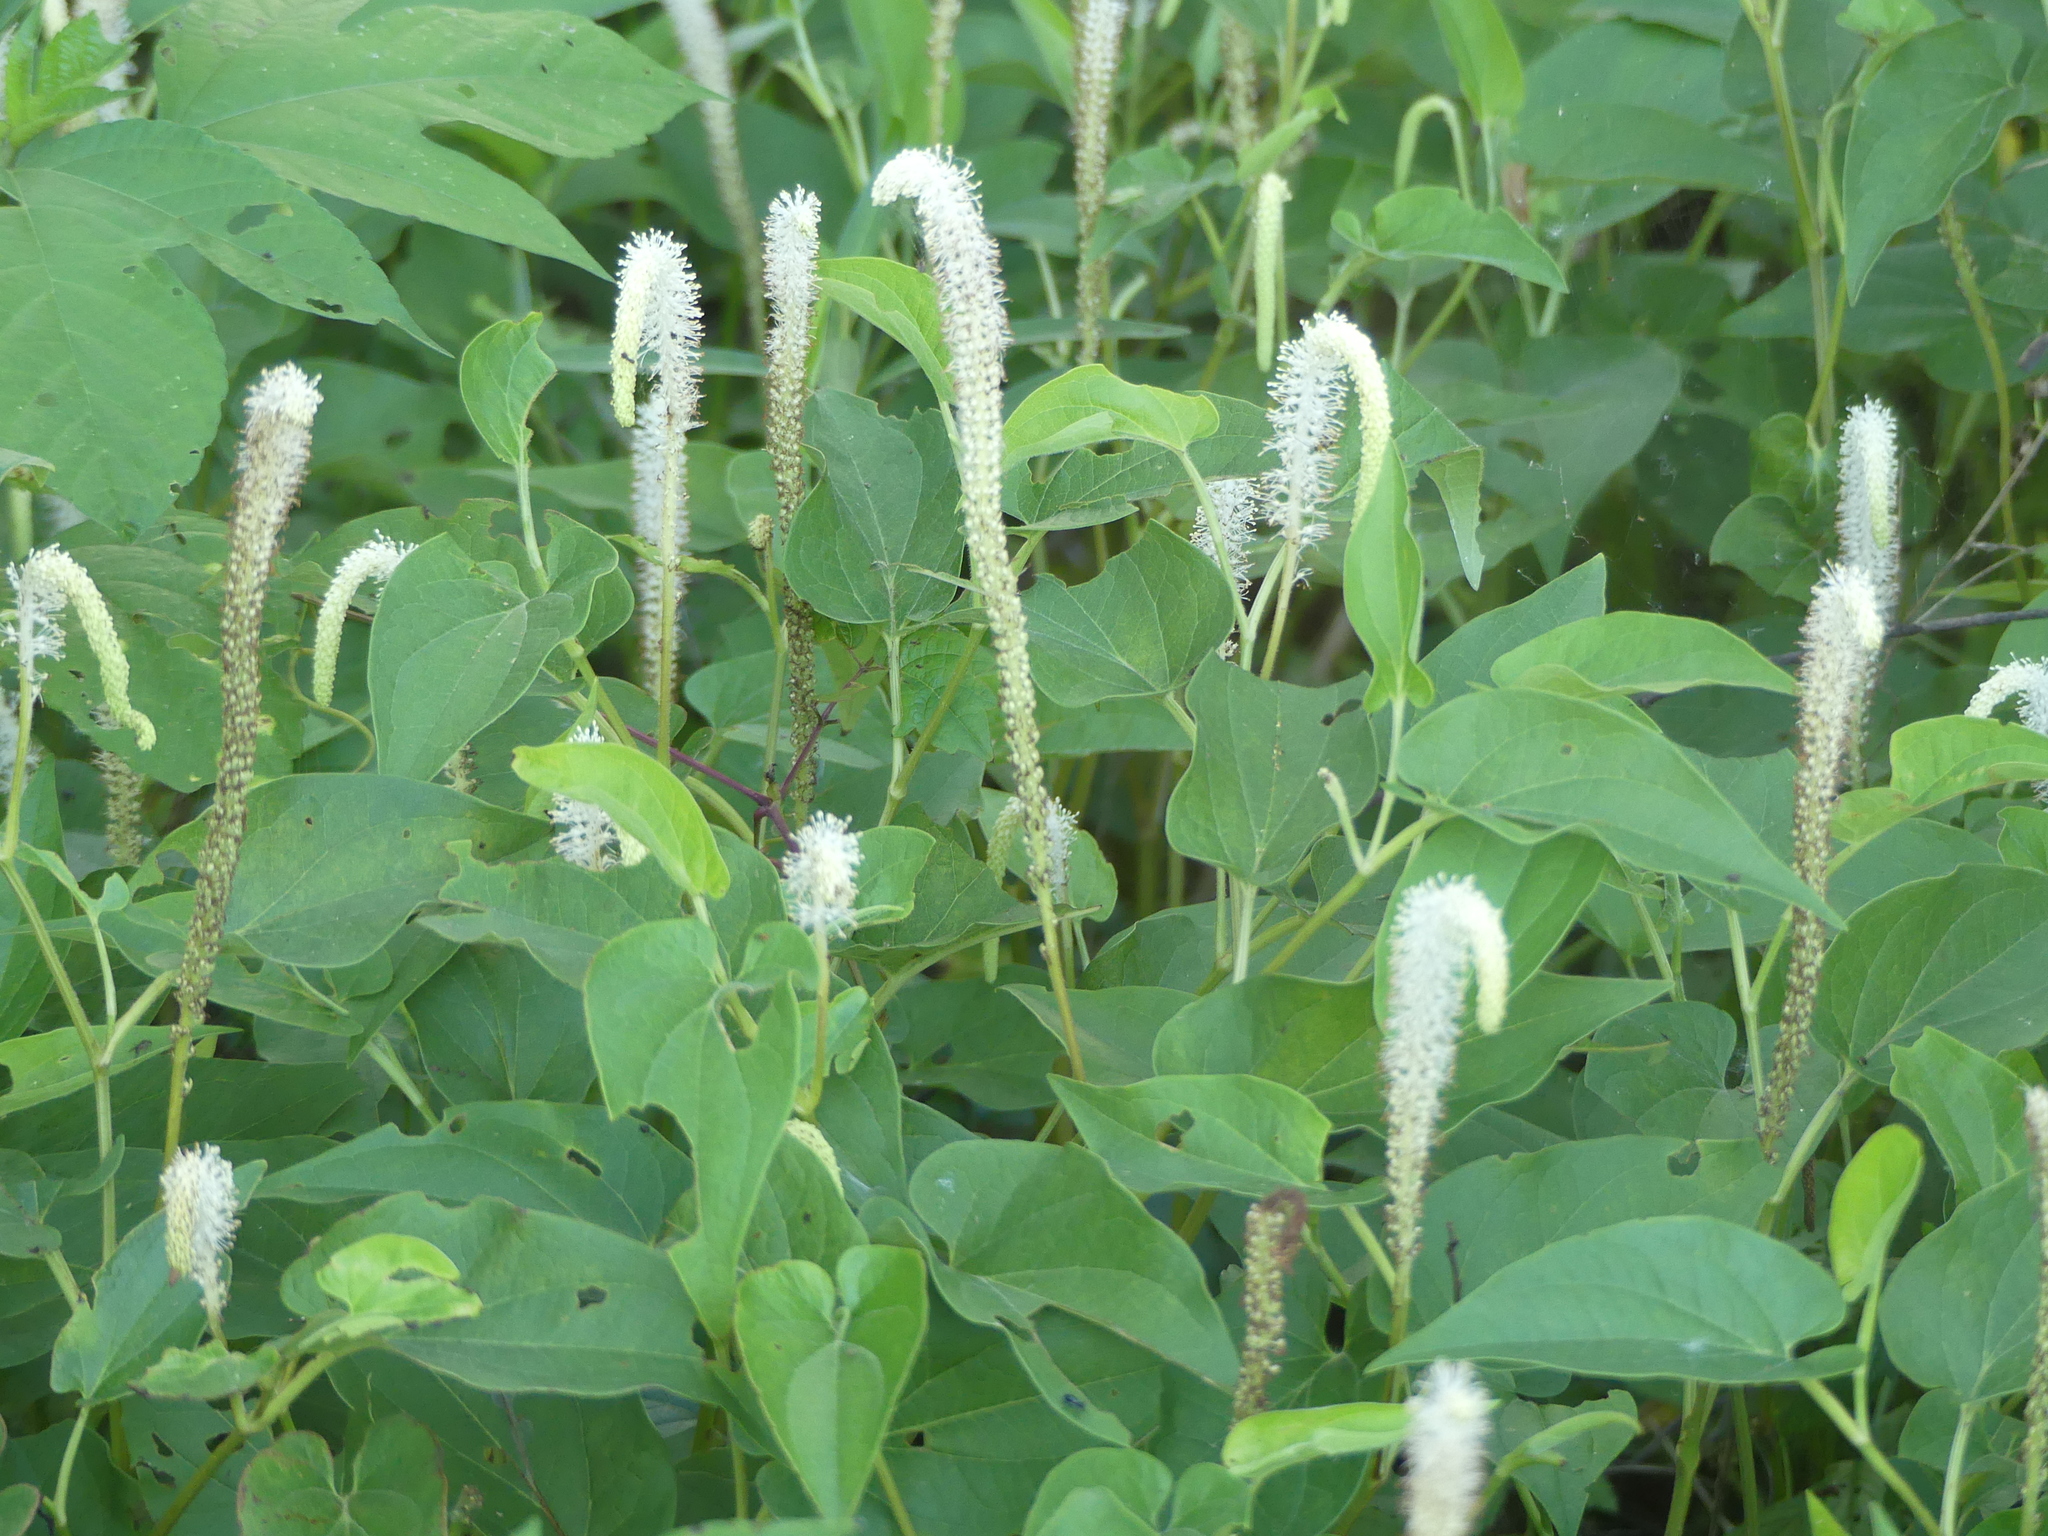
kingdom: Plantae
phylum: Tracheophyta
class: Magnoliopsida
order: Piperales
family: Saururaceae
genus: Saururus
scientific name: Saururus cernuus
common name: Lizard's-tail
